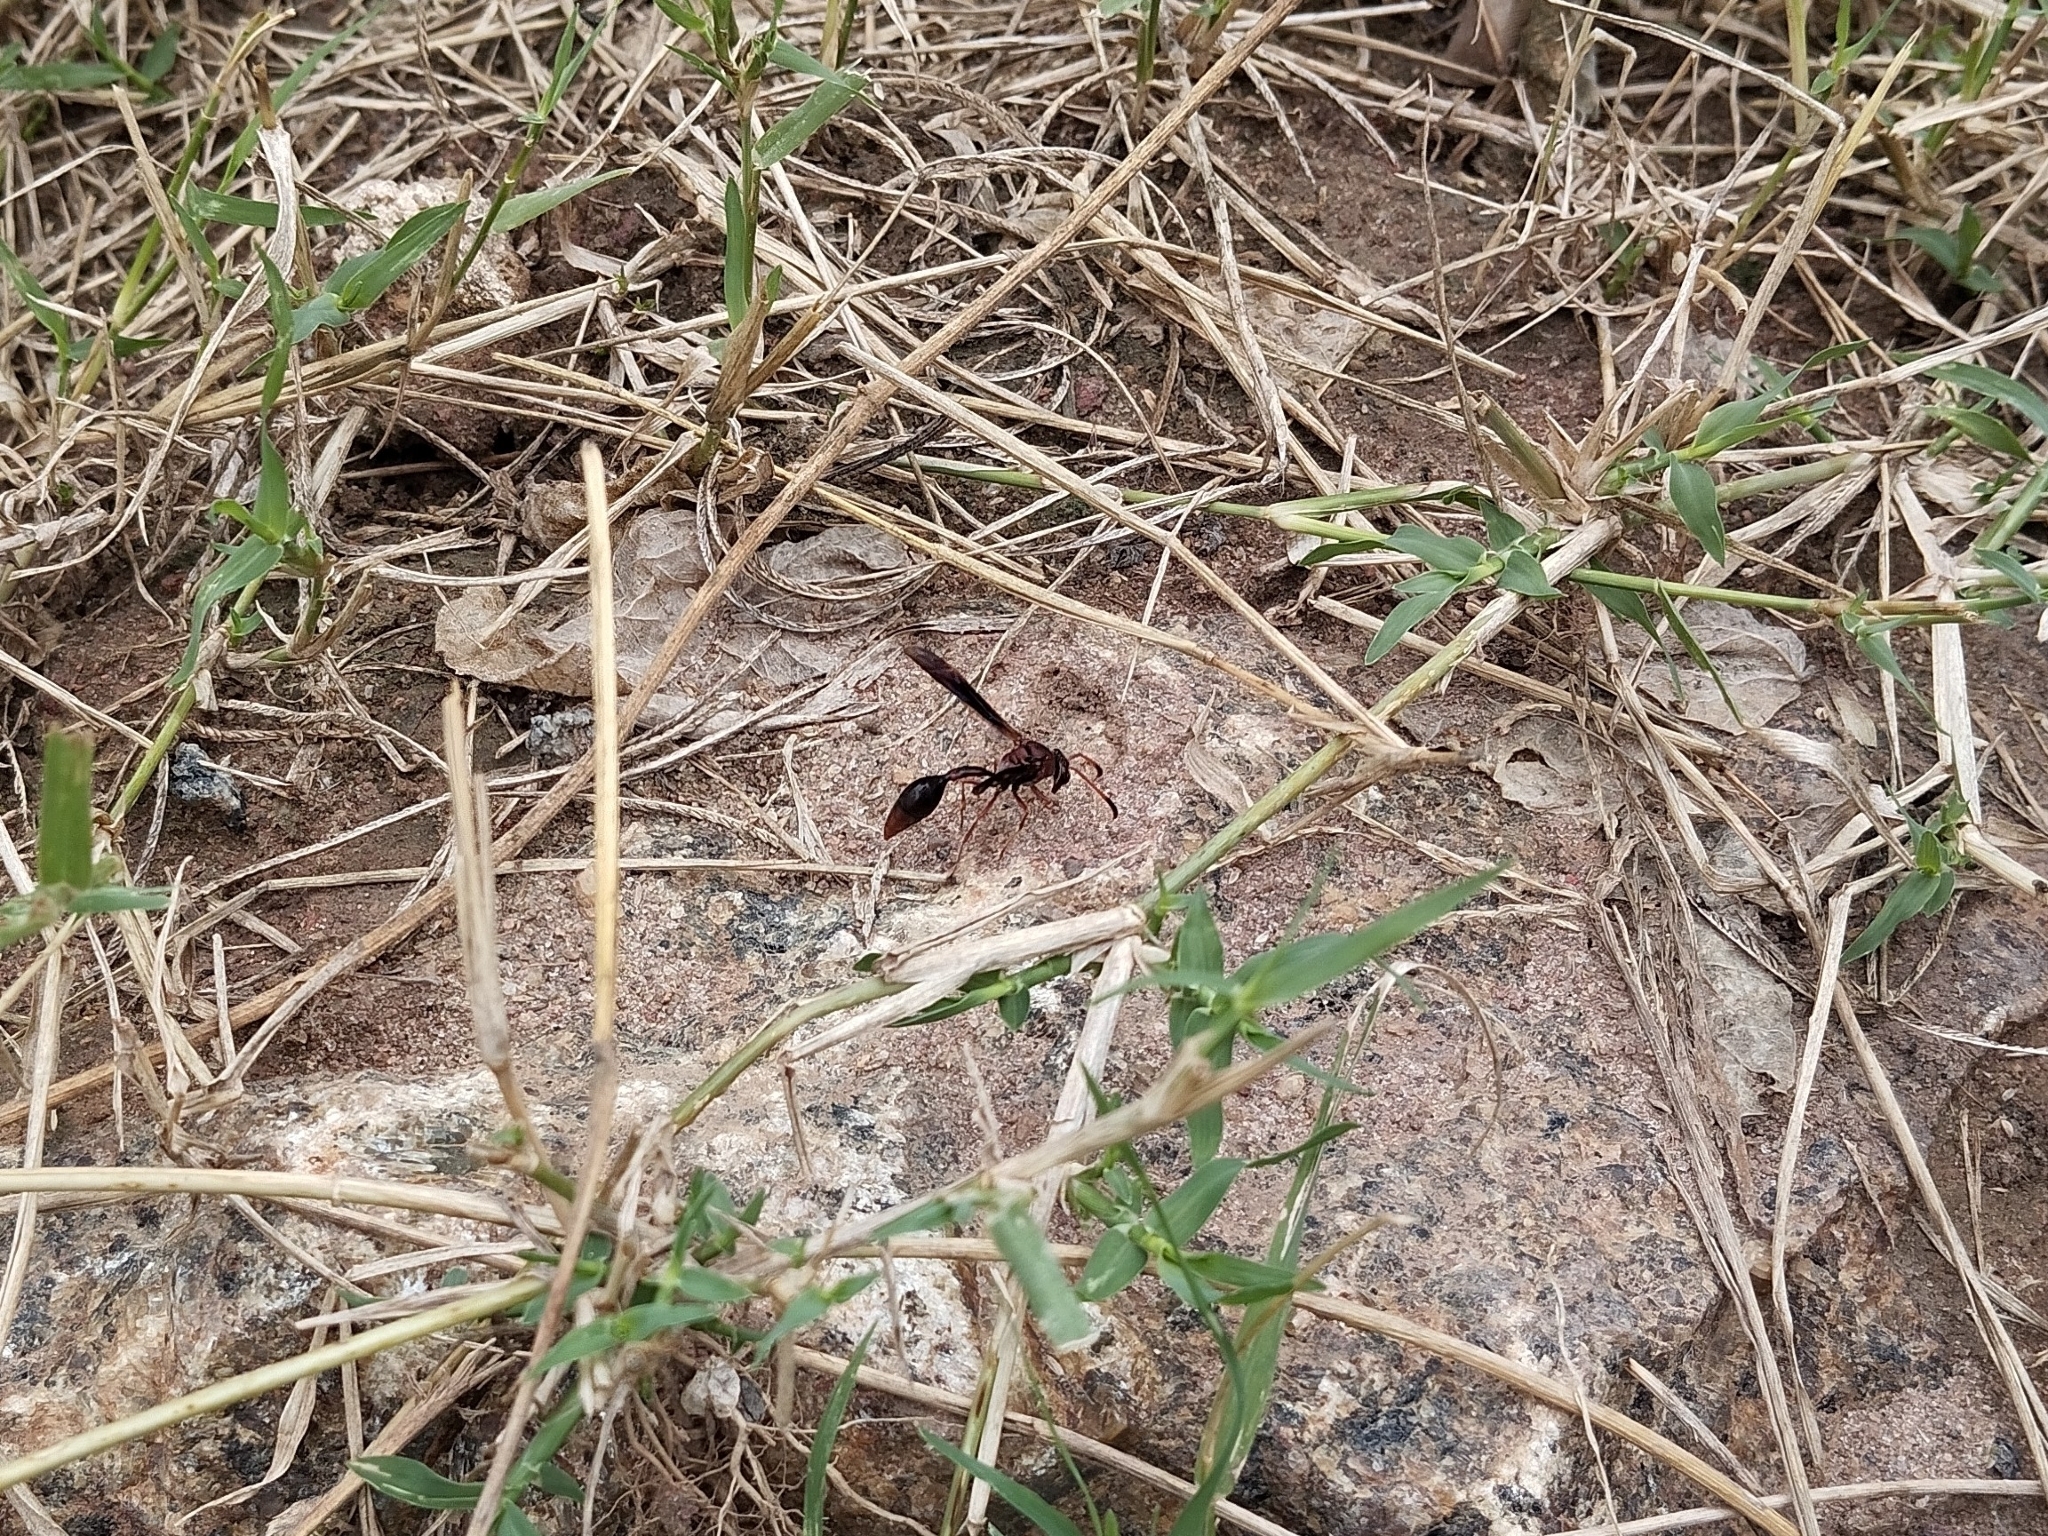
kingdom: Animalia
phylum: Arthropoda
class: Insecta
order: Hymenoptera
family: Eumenidae
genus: Zeta
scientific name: Zeta argillaceum
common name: Potter wasp
